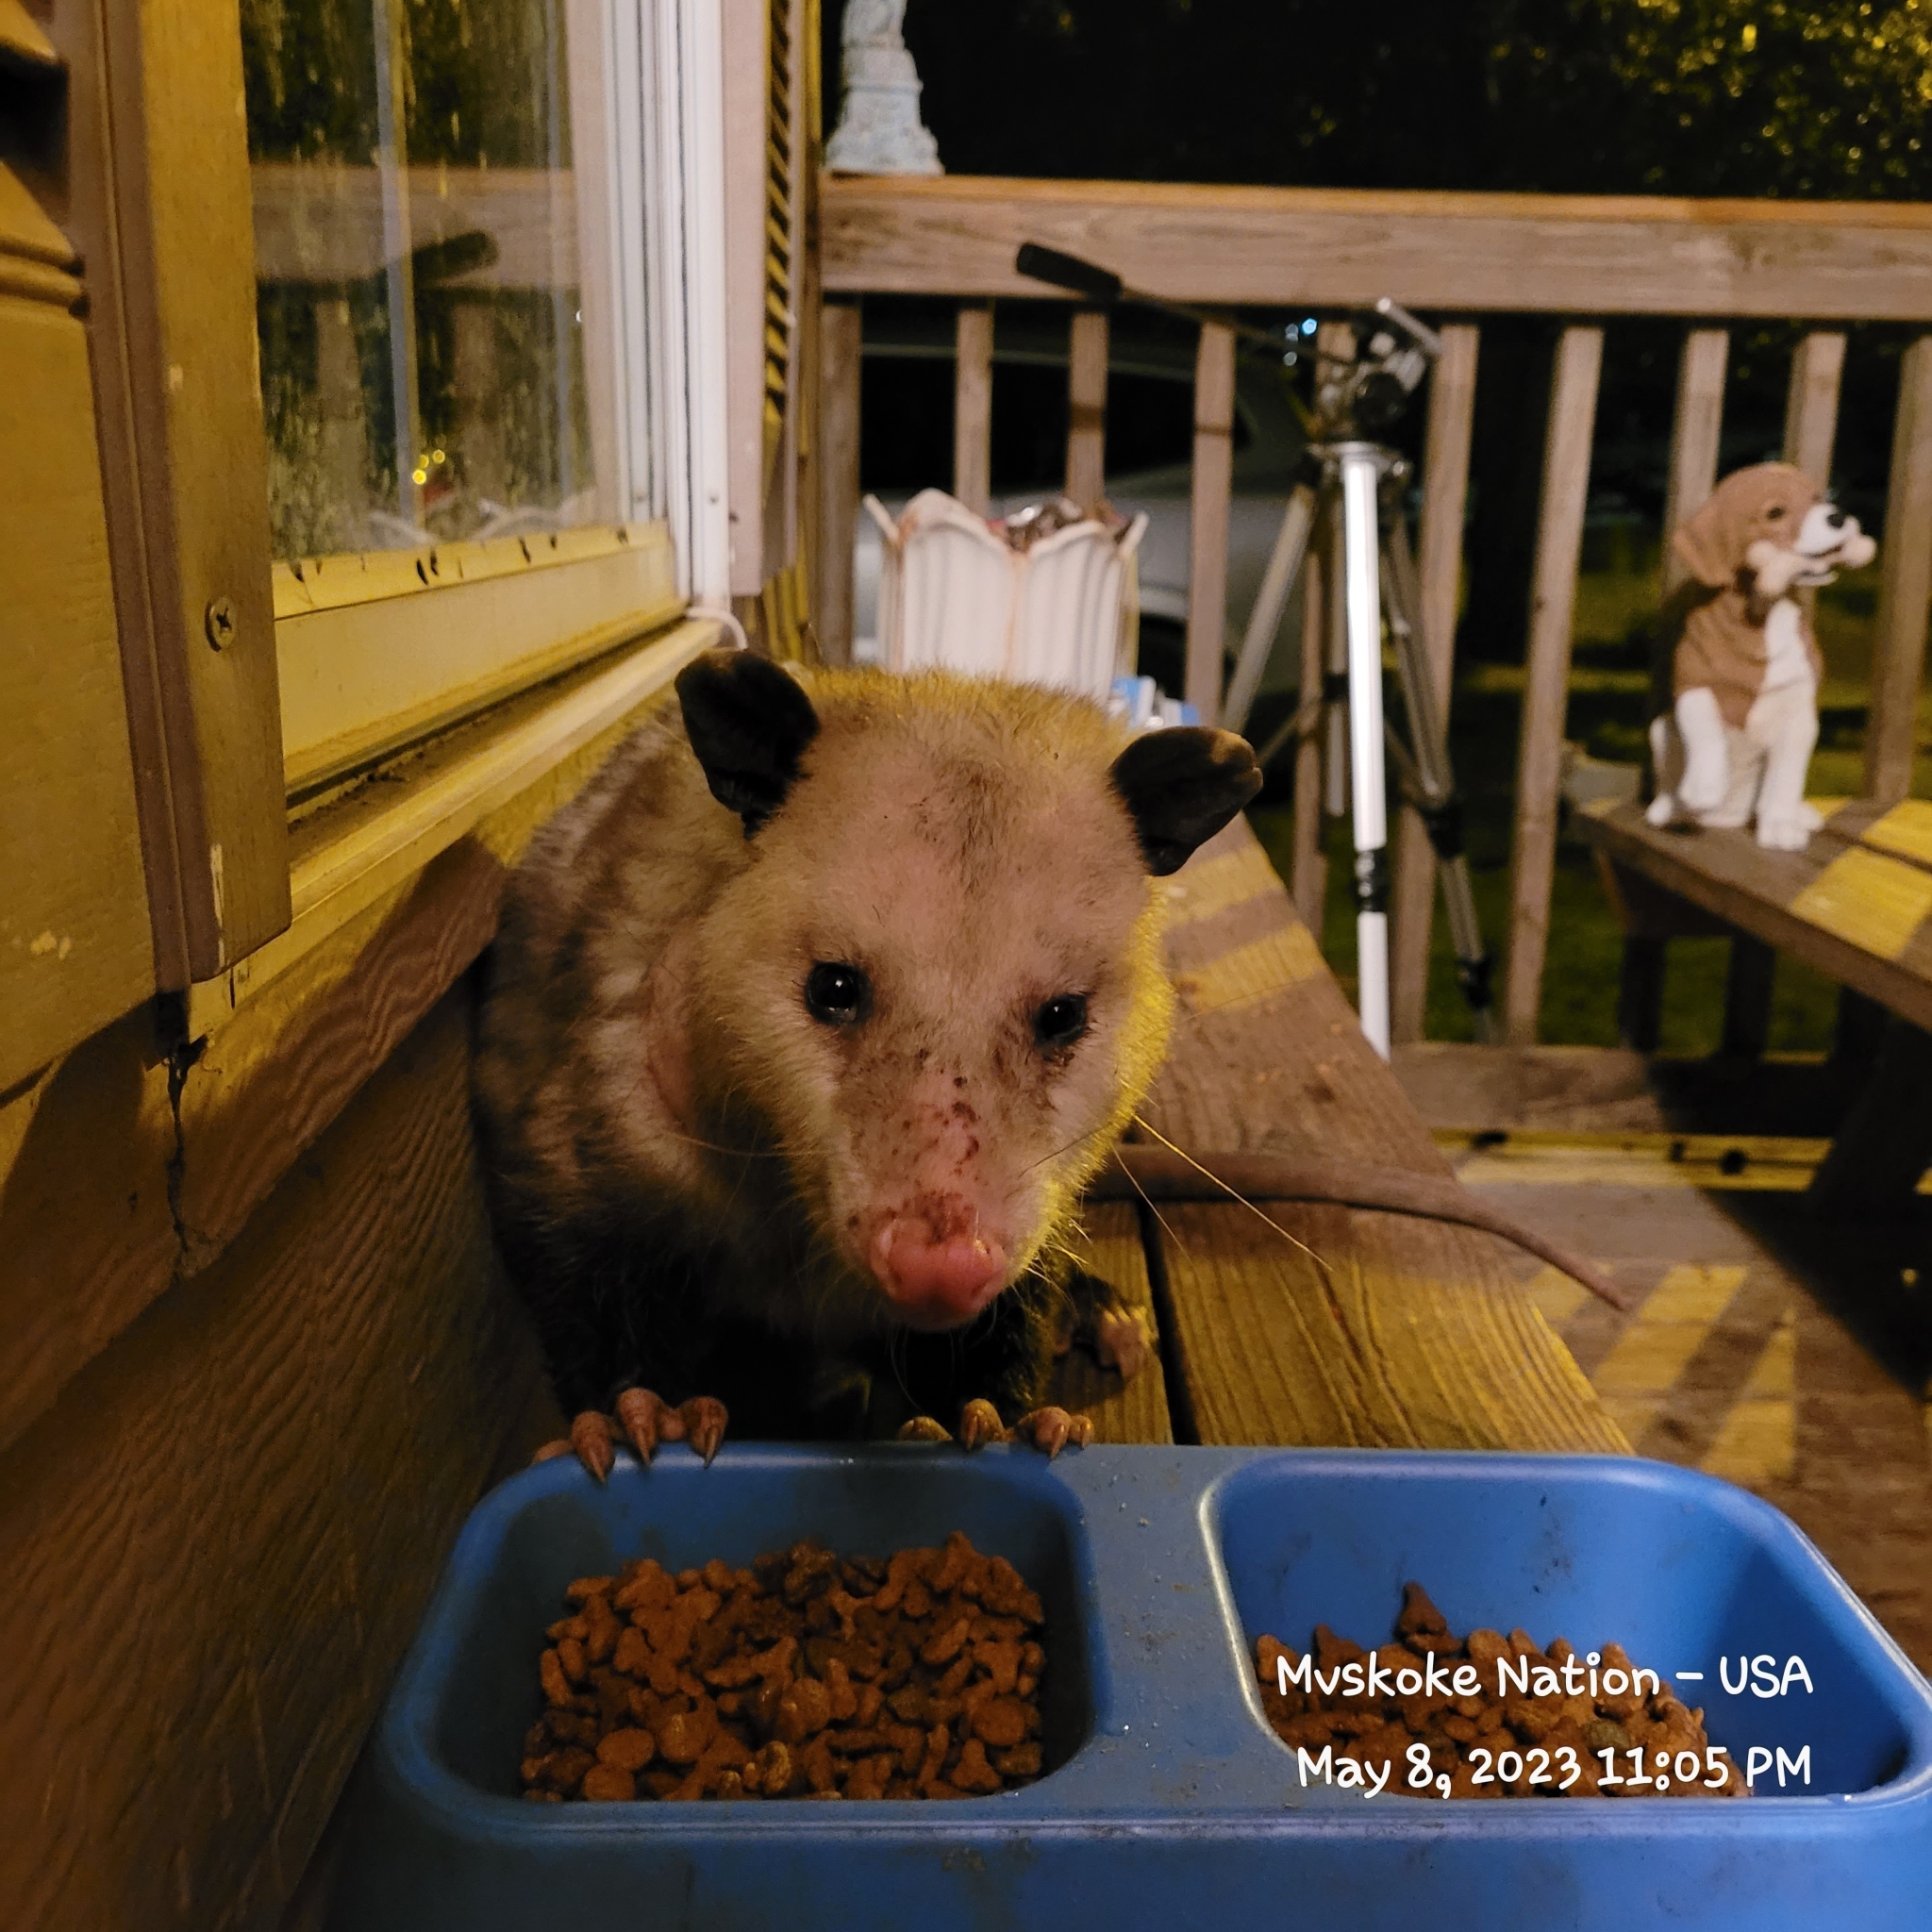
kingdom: Animalia
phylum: Chordata
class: Mammalia
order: Didelphimorphia
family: Didelphidae
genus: Didelphis
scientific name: Didelphis virginiana
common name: Virginia opossum
